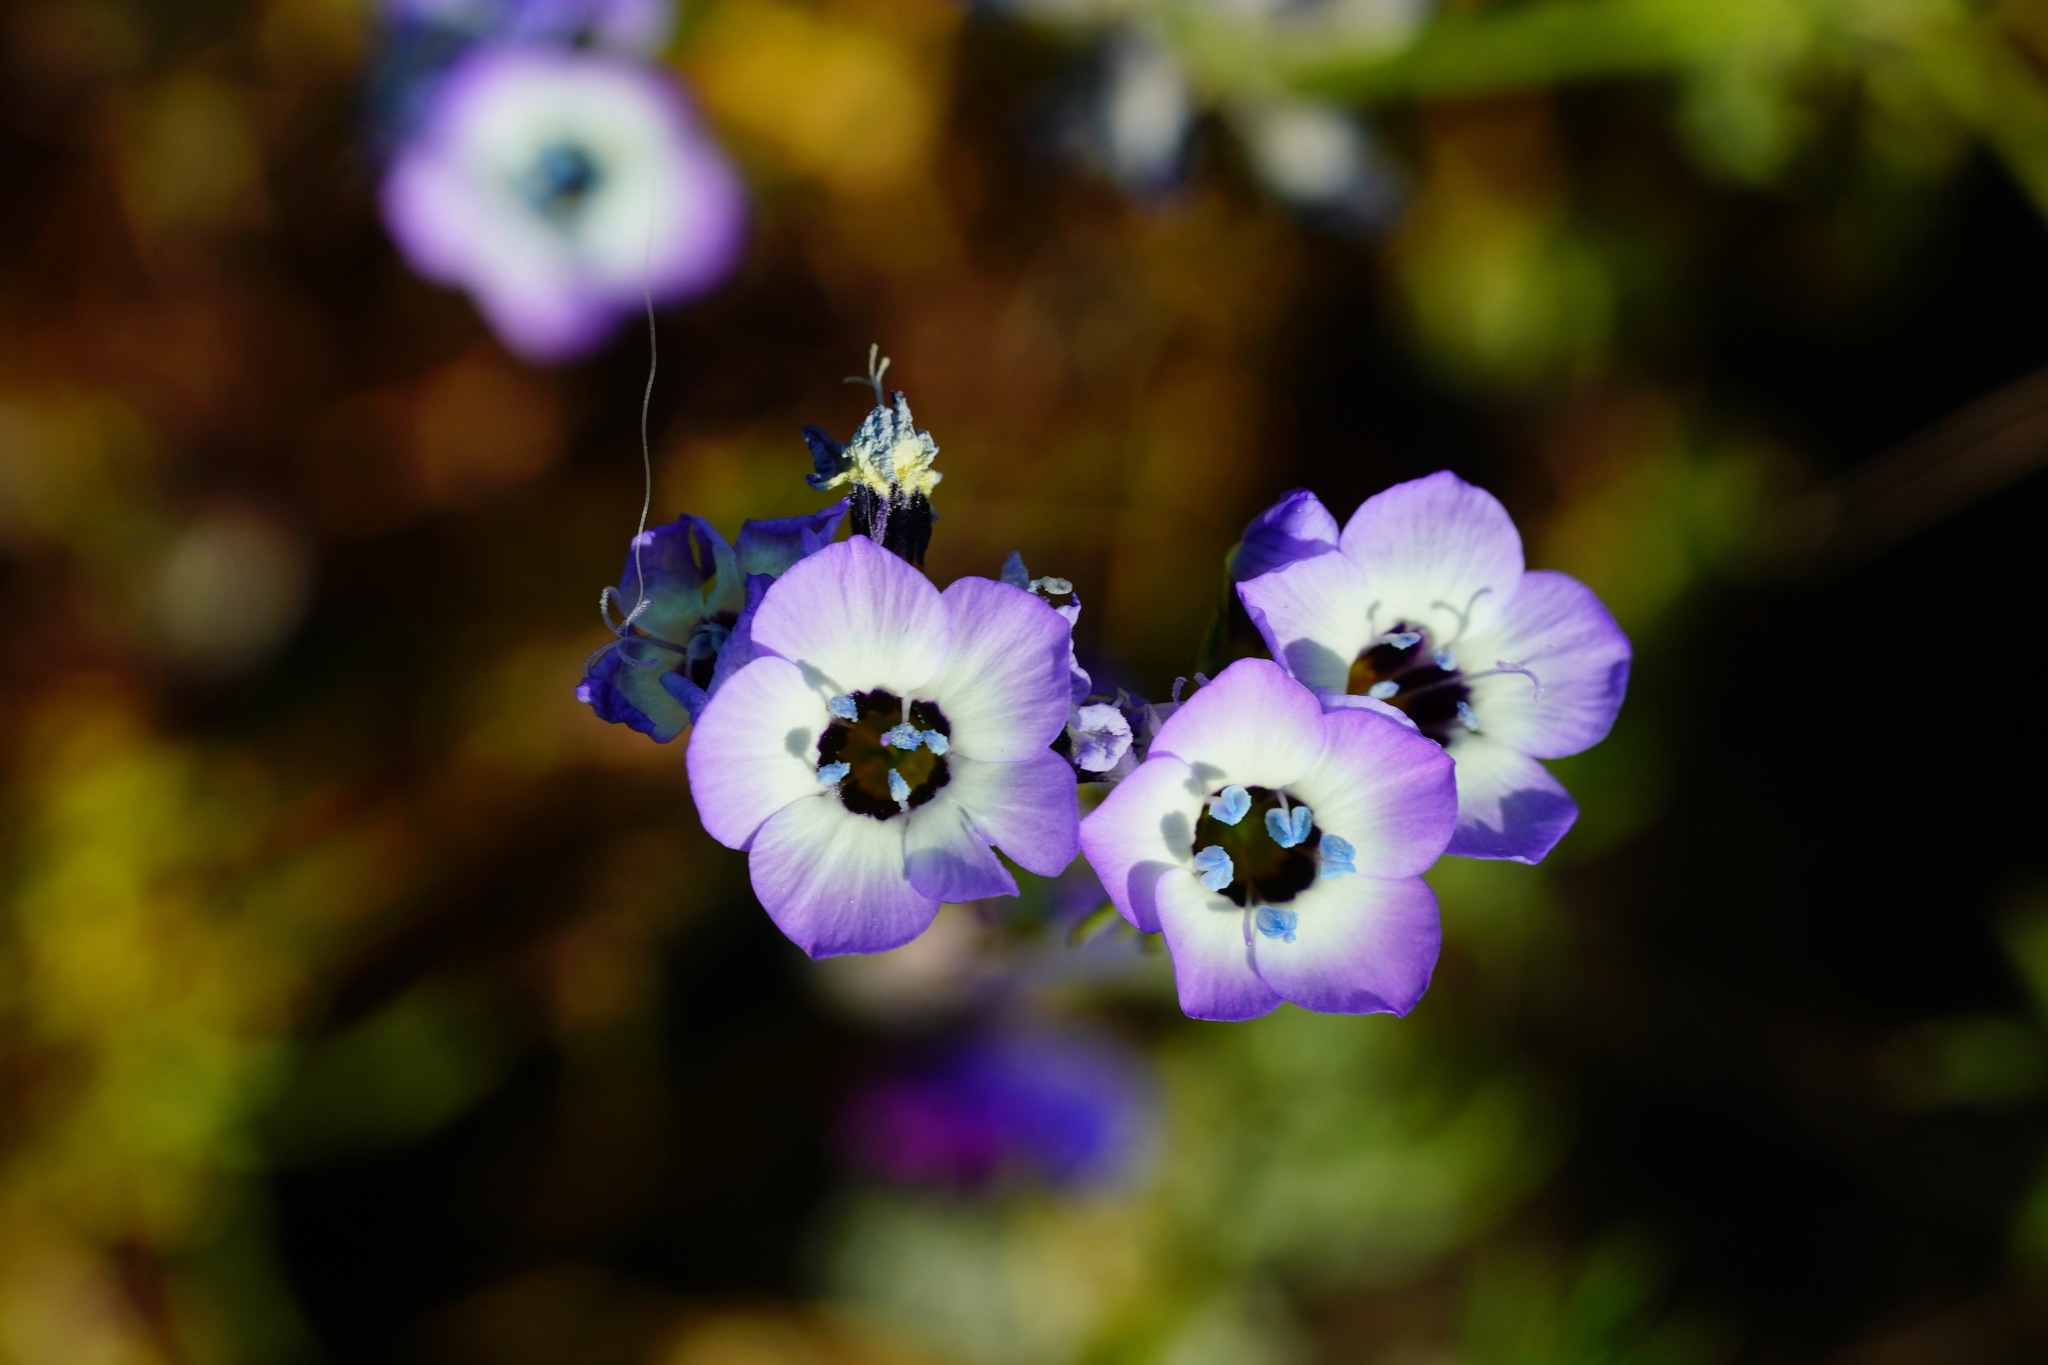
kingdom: Plantae
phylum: Tracheophyta
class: Magnoliopsida
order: Ericales
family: Polemoniaceae
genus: Gilia
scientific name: Gilia tricolor
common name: Bird's-eyes
